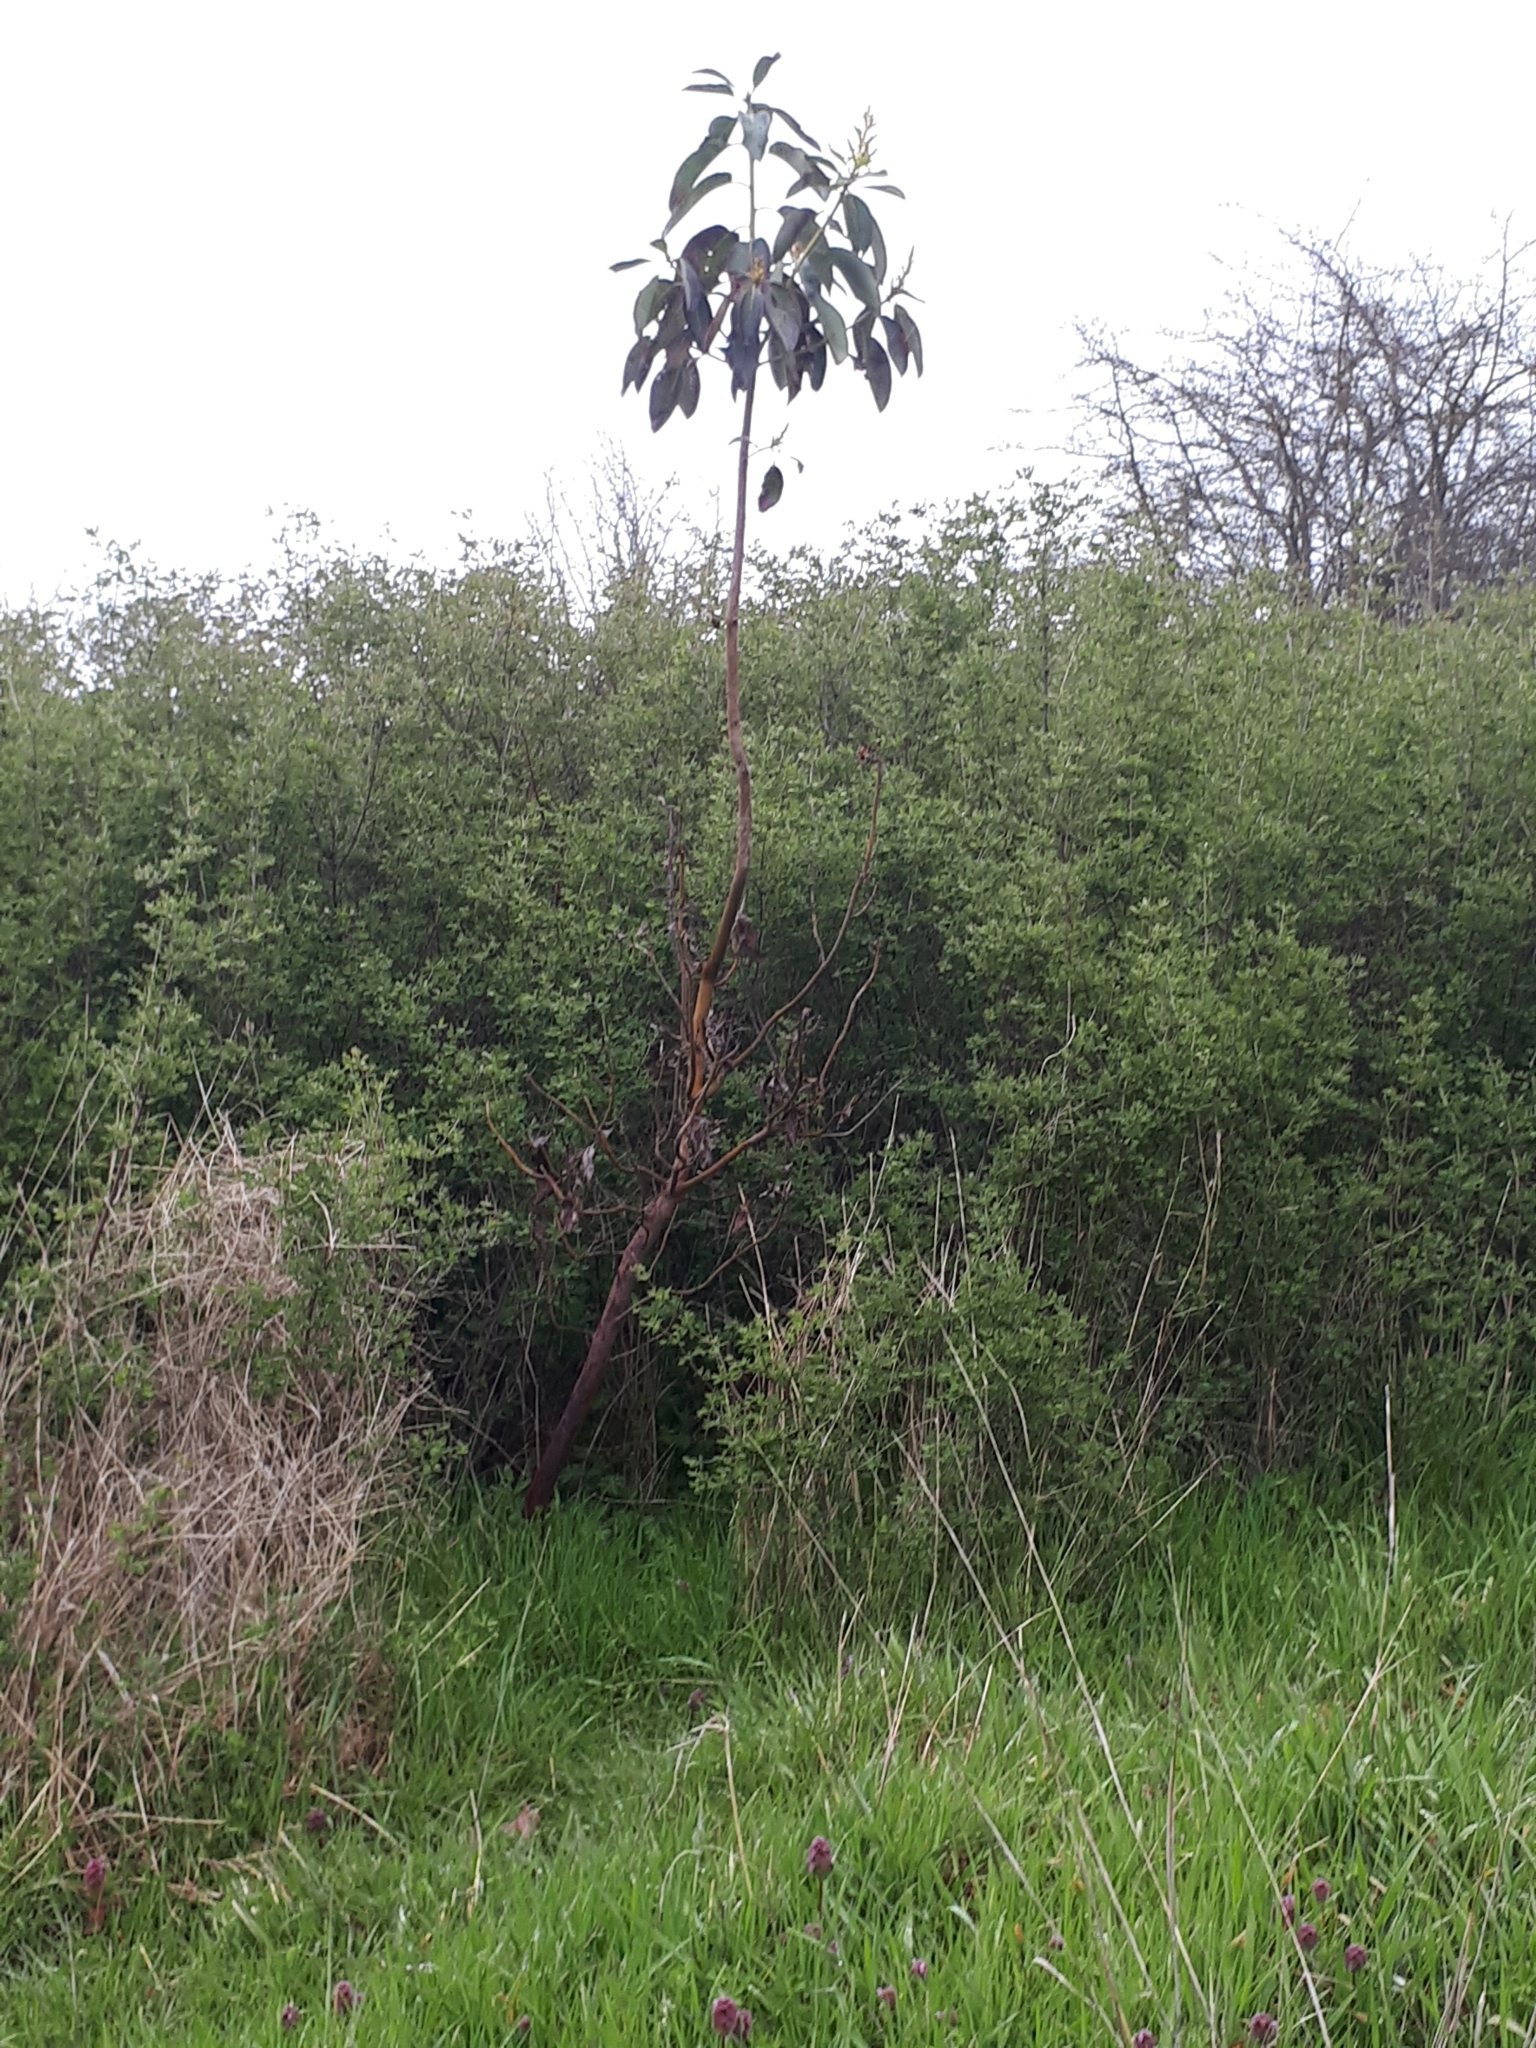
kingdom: Plantae
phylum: Tracheophyta
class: Magnoliopsida
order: Ericales
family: Ericaceae
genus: Arbutus
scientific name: Arbutus menziesii
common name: Pacific madrone
